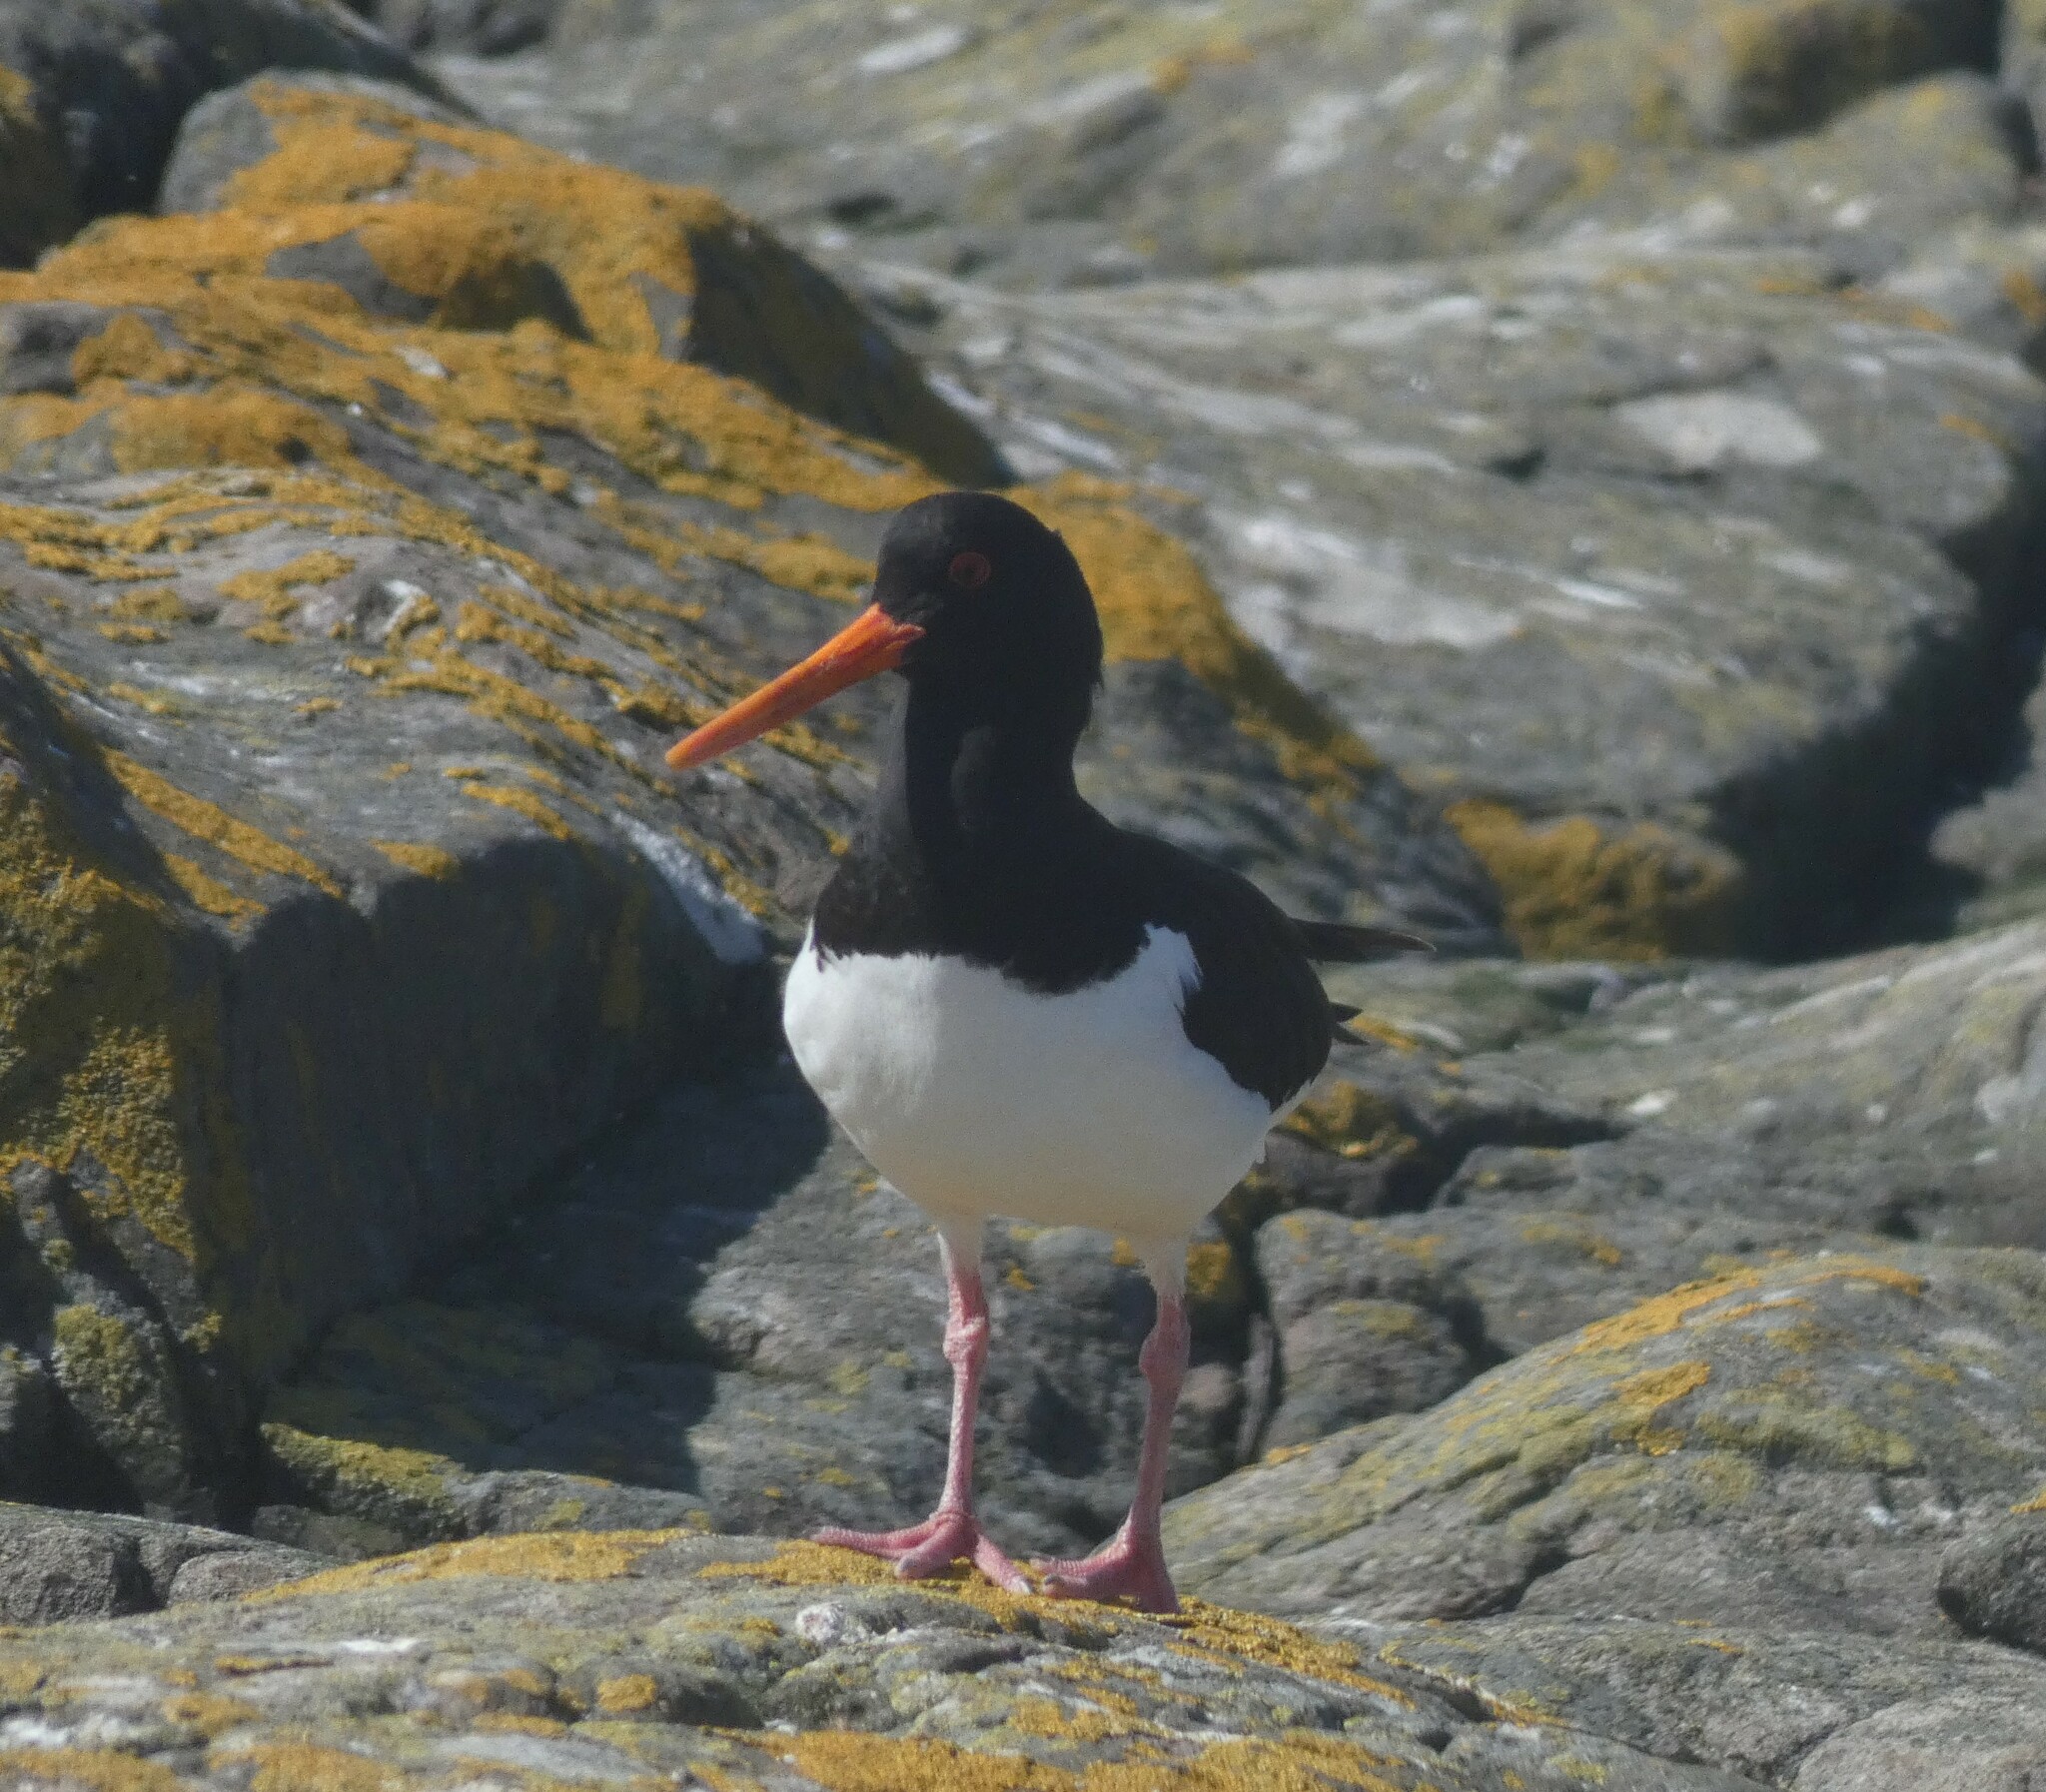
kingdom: Animalia
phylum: Chordata
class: Aves
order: Charadriiformes
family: Haematopodidae
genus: Haematopus
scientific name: Haematopus ostralegus
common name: Eurasian oystercatcher
